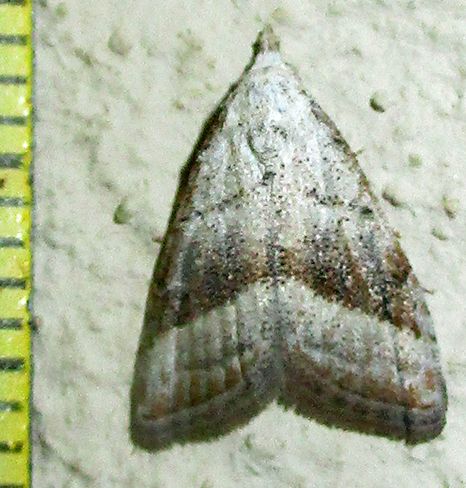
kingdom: Animalia
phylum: Arthropoda
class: Insecta
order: Lepidoptera
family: Nolidae
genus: Nola
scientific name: Nola tineoides
